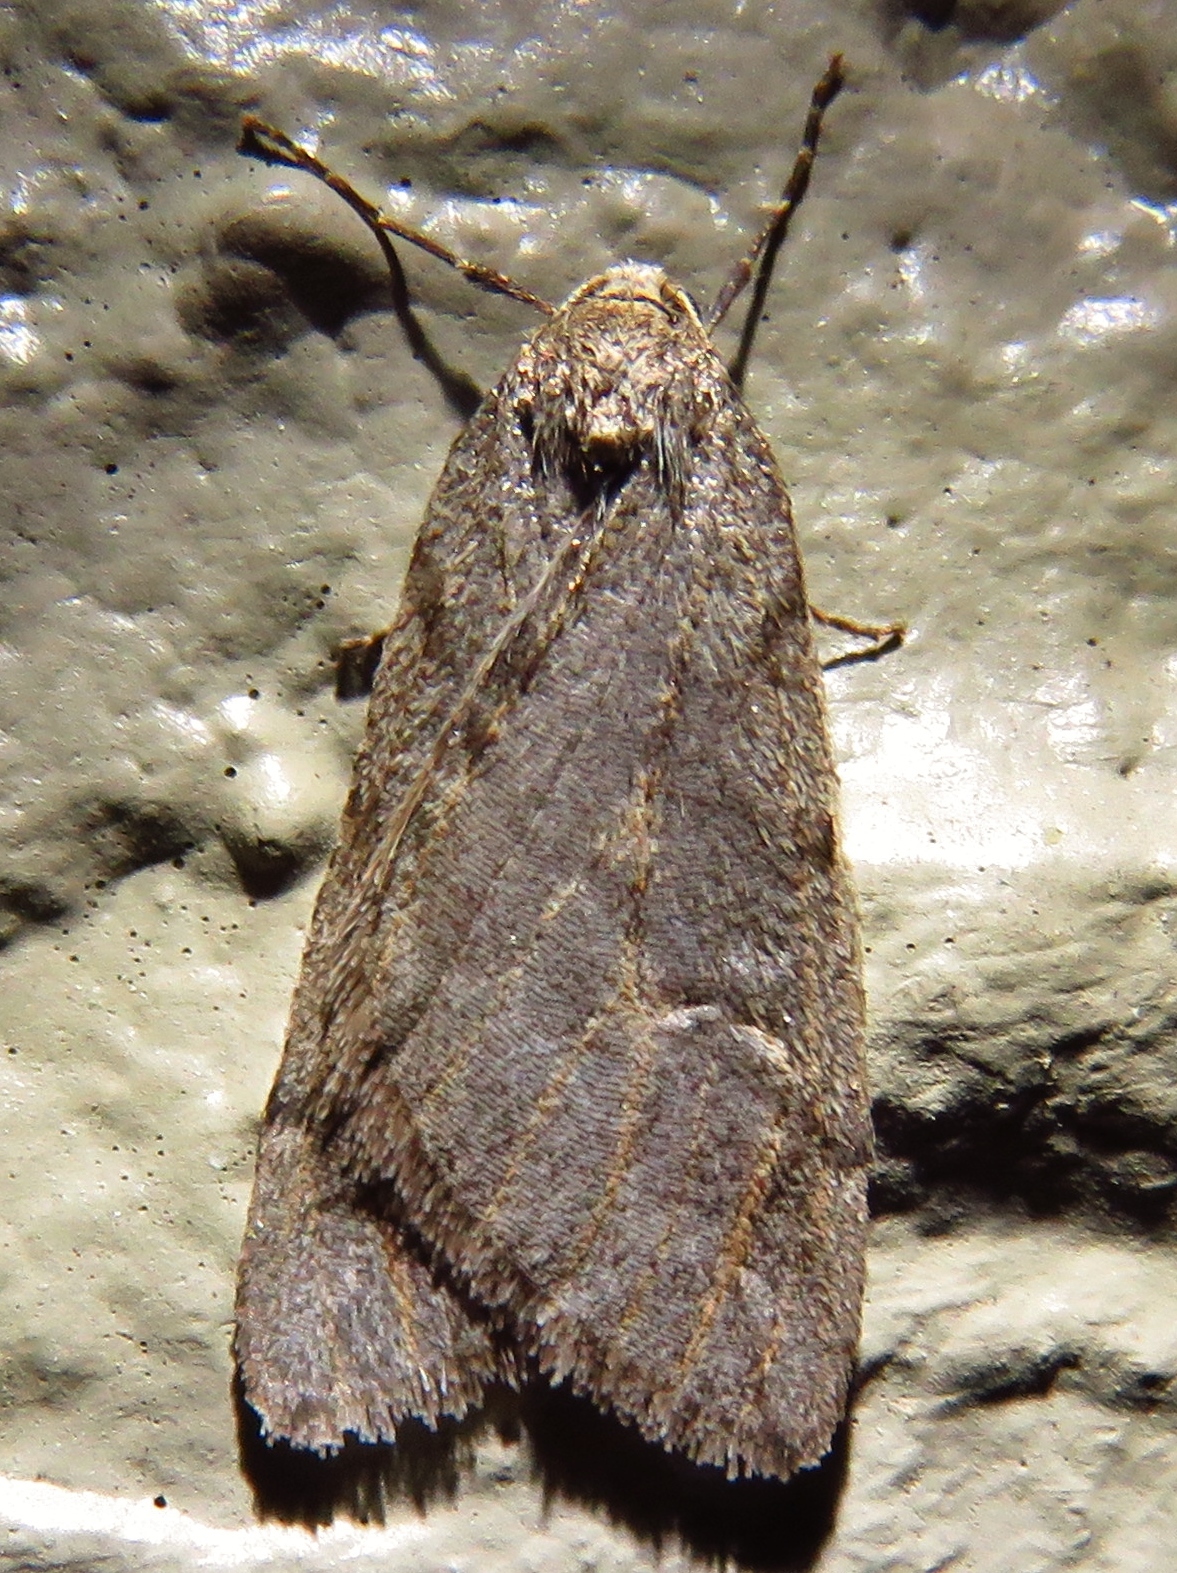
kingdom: Animalia
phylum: Arthropoda
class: Insecta
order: Lepidoptera
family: Geometridae
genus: Paleacrita
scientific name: Paleacrita vernata
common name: Spring cankerworm
